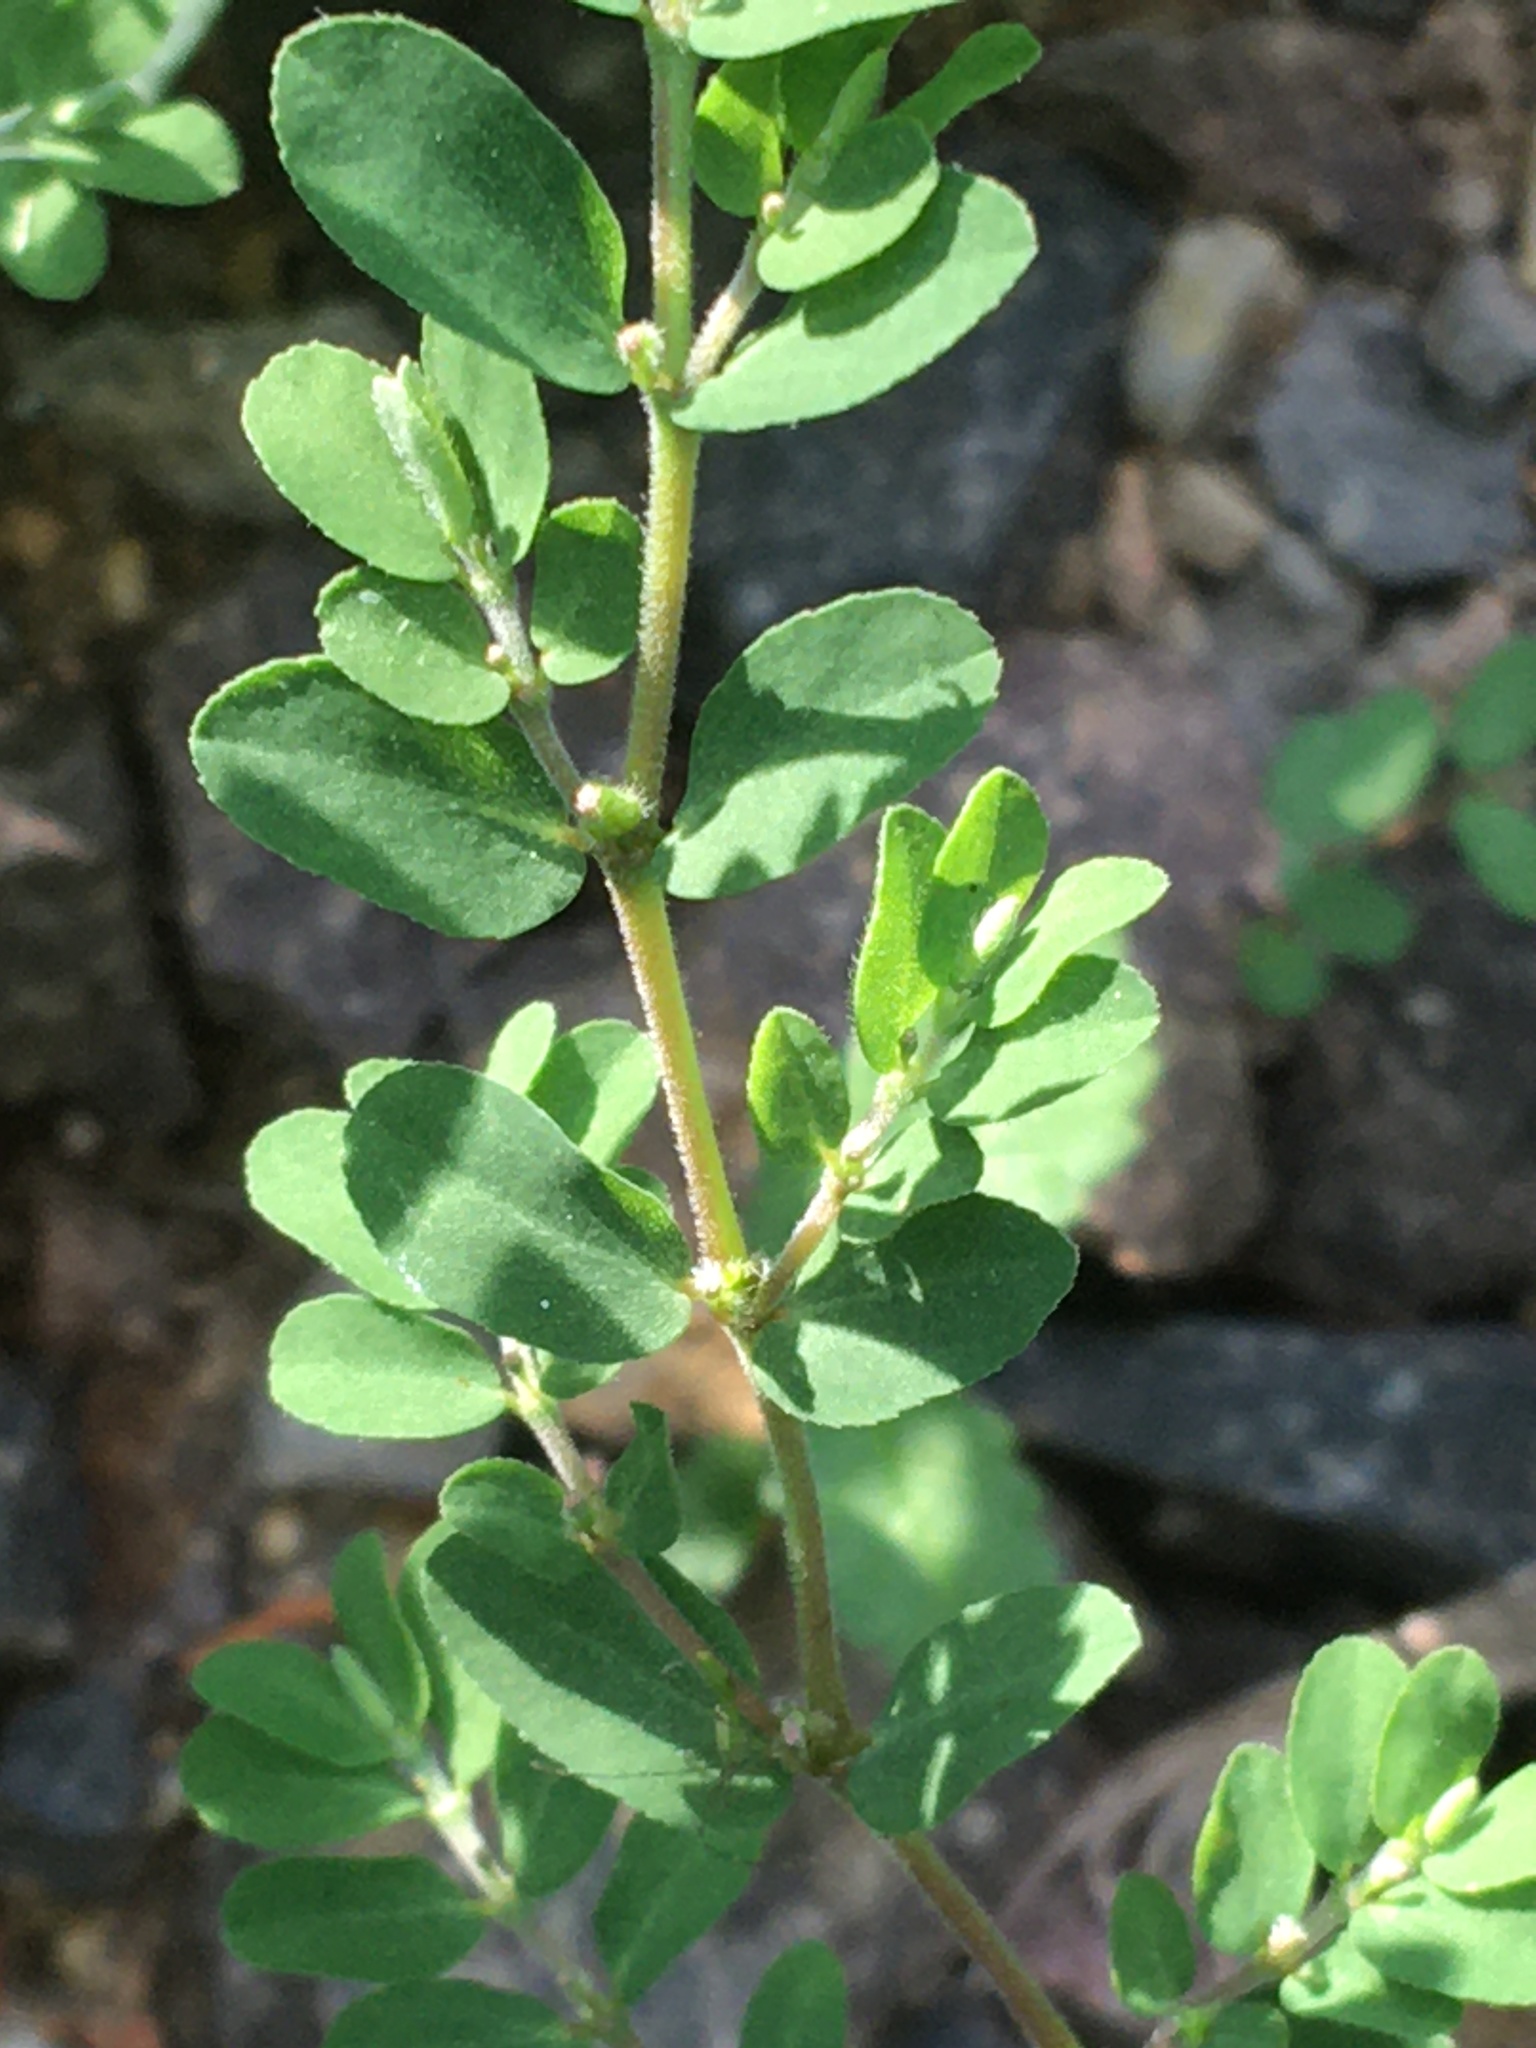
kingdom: Plantae
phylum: Tracheophyta
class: Magnoliopsida
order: Malpighiales
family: Euphorbiaceae
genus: Euphorbia
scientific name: Euphorbia prostrata
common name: Prostrate sandmat
